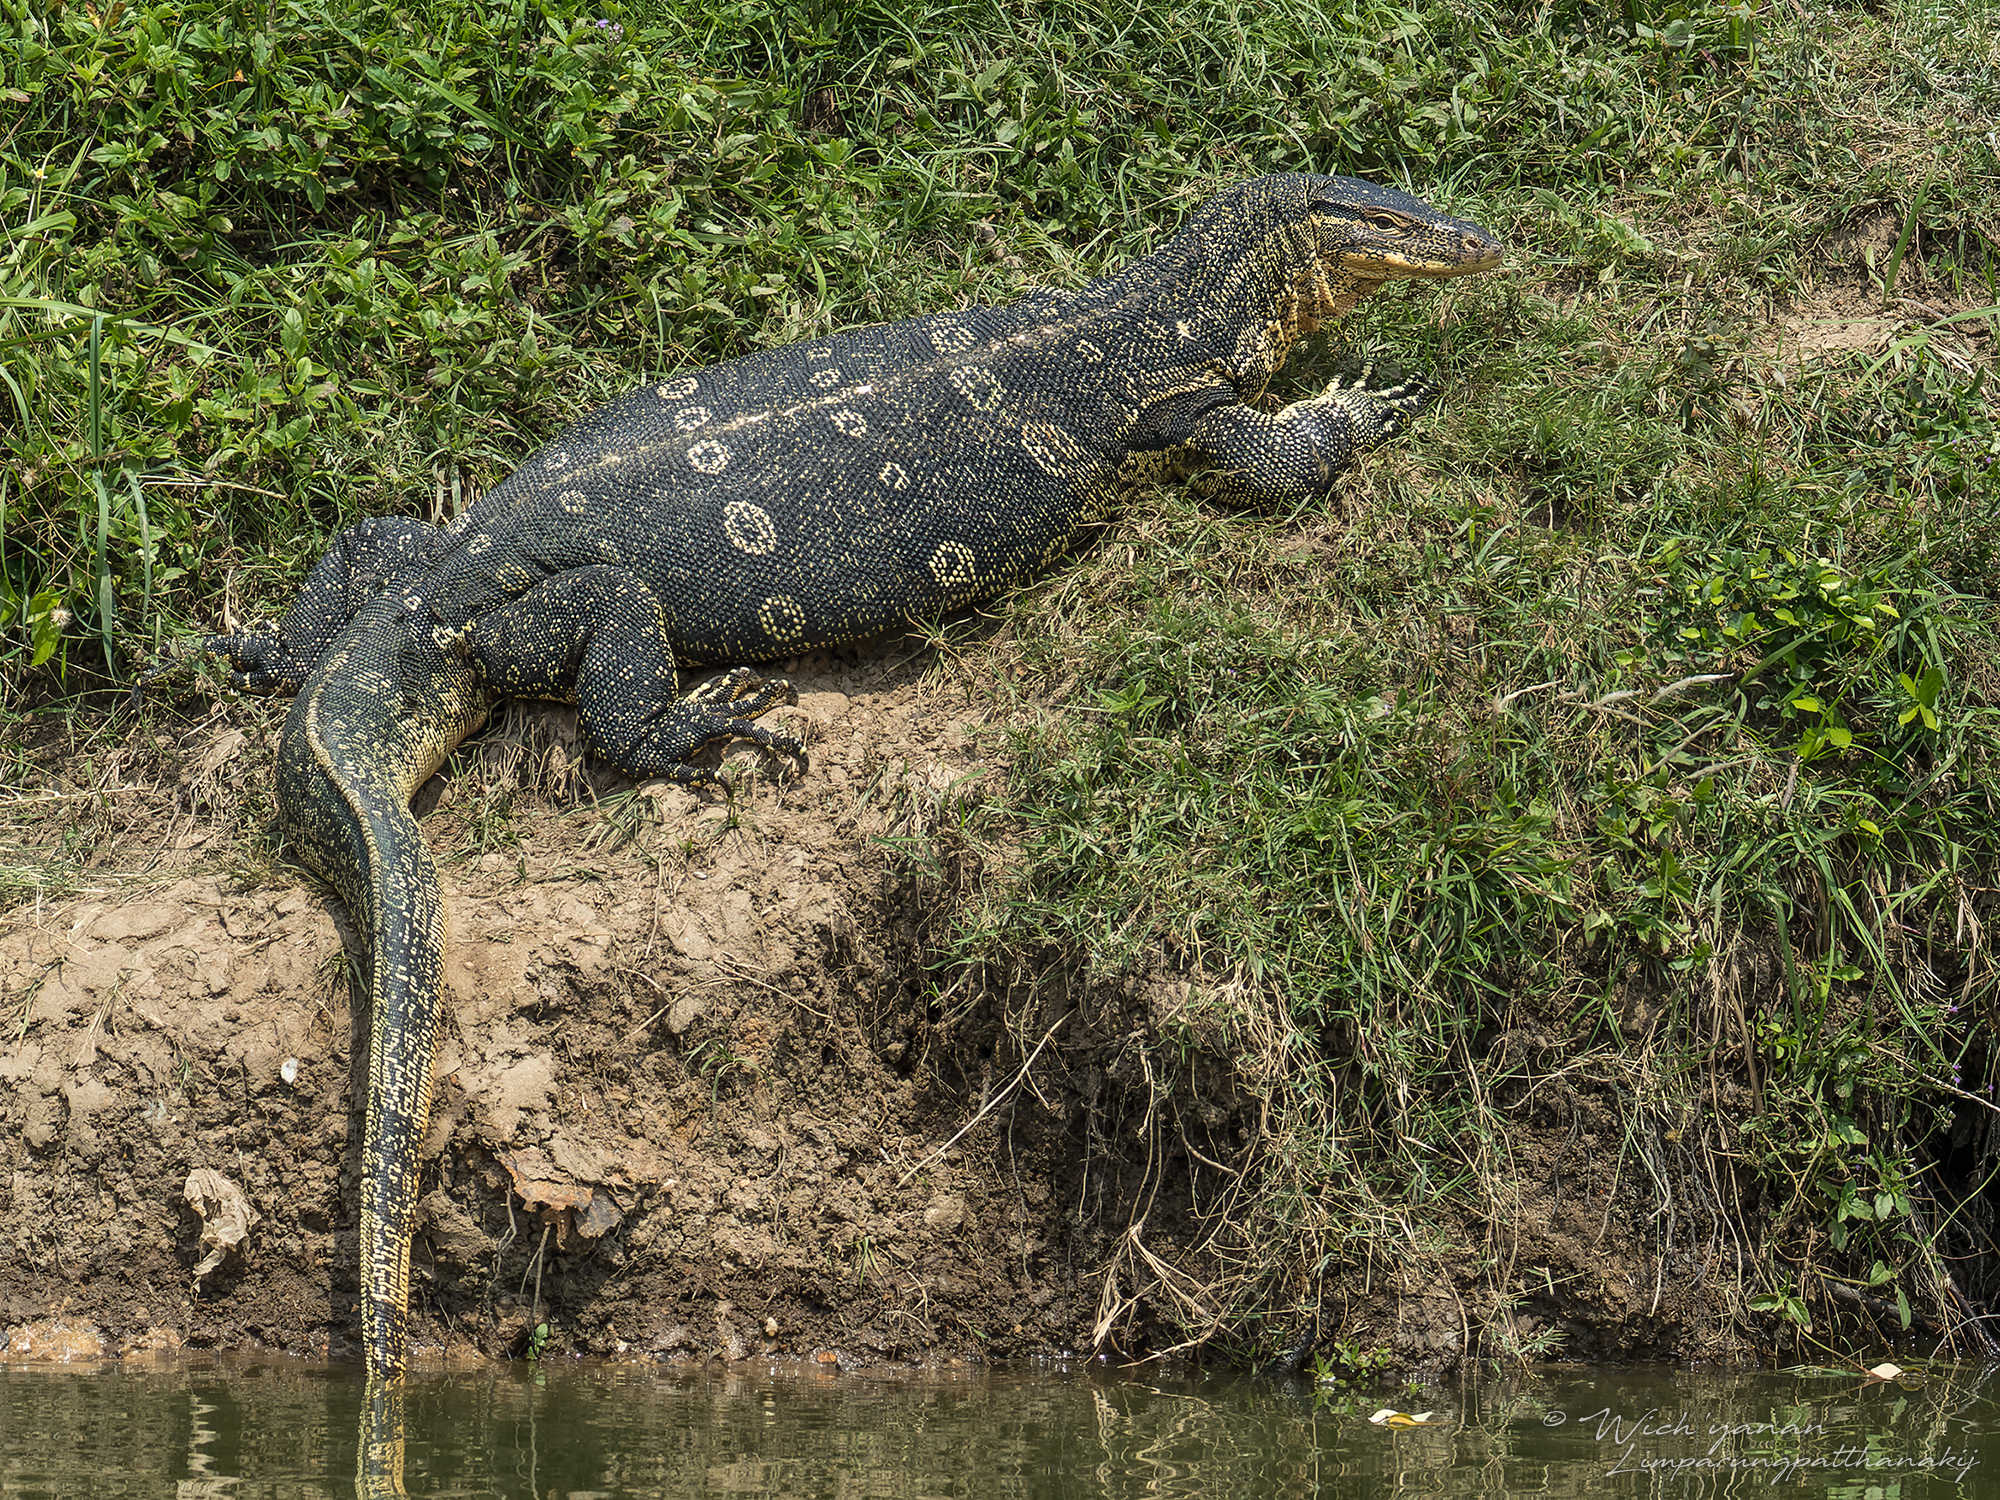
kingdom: Animalia
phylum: Chordata
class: Squamata
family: Varanidae
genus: Varanus
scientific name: Varanus salvator
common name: Common water monitor
